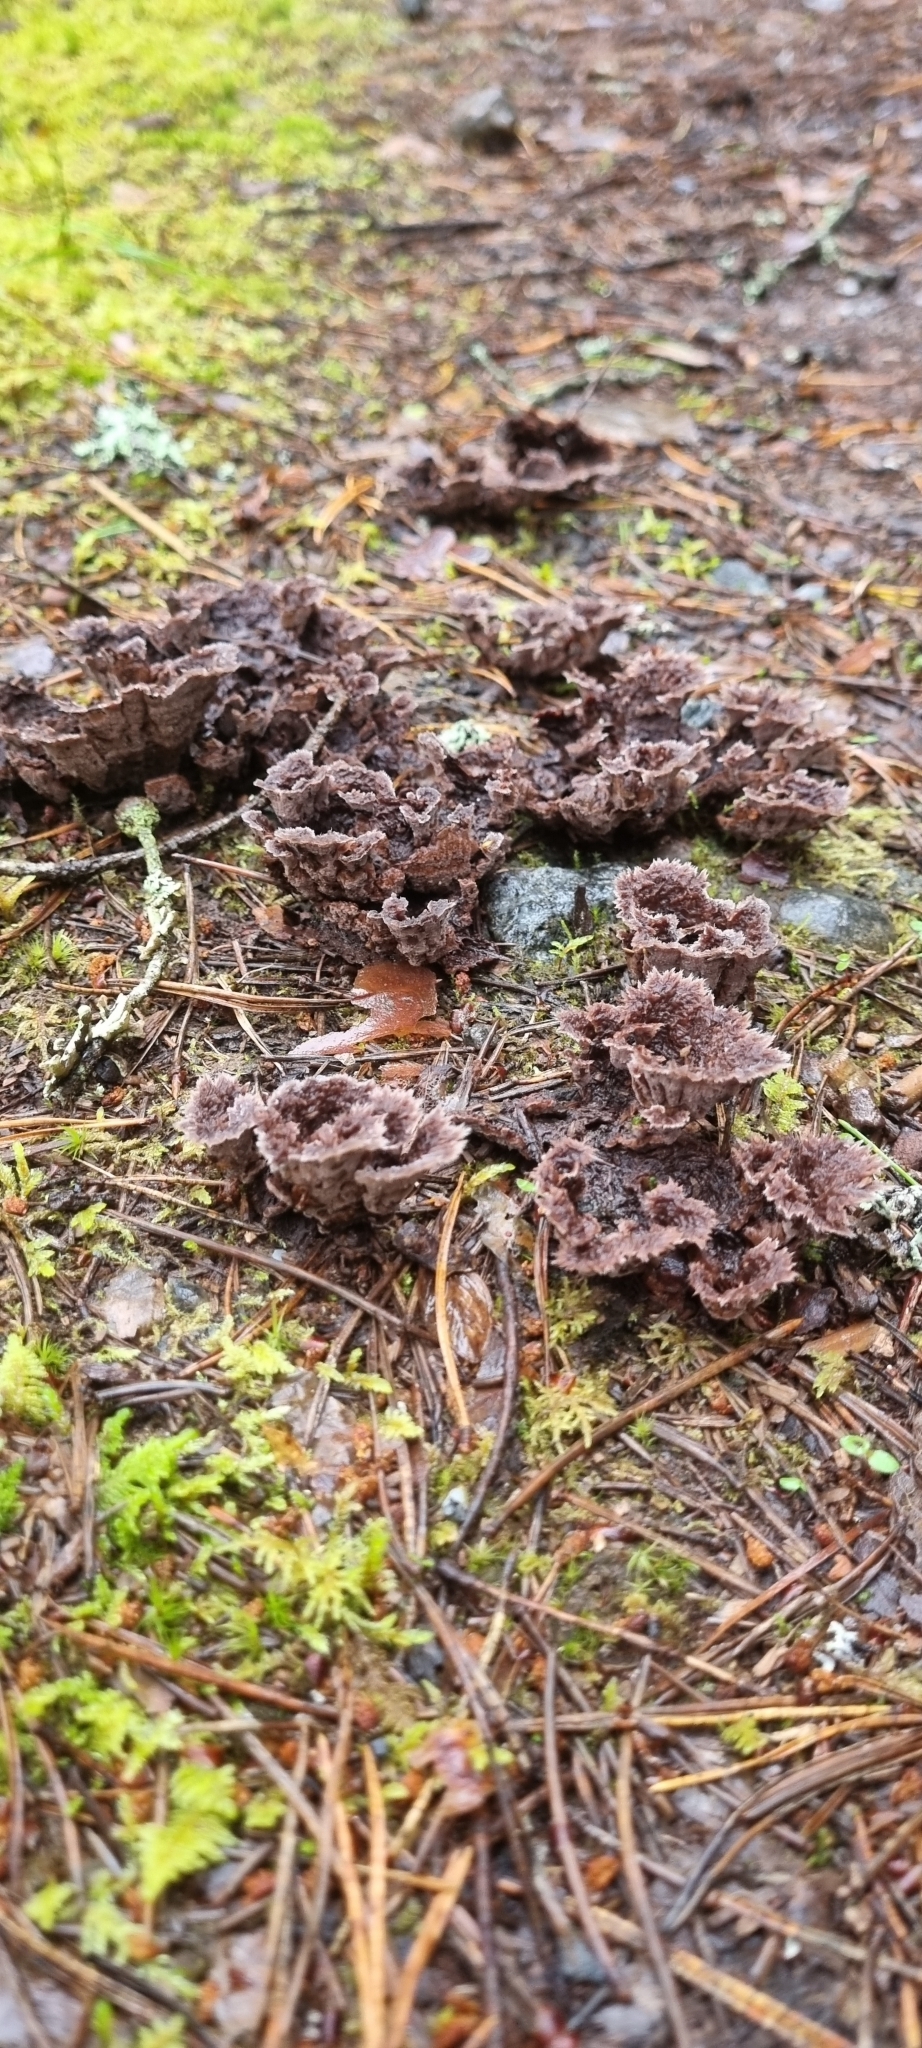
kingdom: Fungi
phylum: Basidiomycota
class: Agaricomycetes
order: Thelephorales
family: Thelephoraceae
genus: Thelephora
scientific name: Thelephora terrestris
